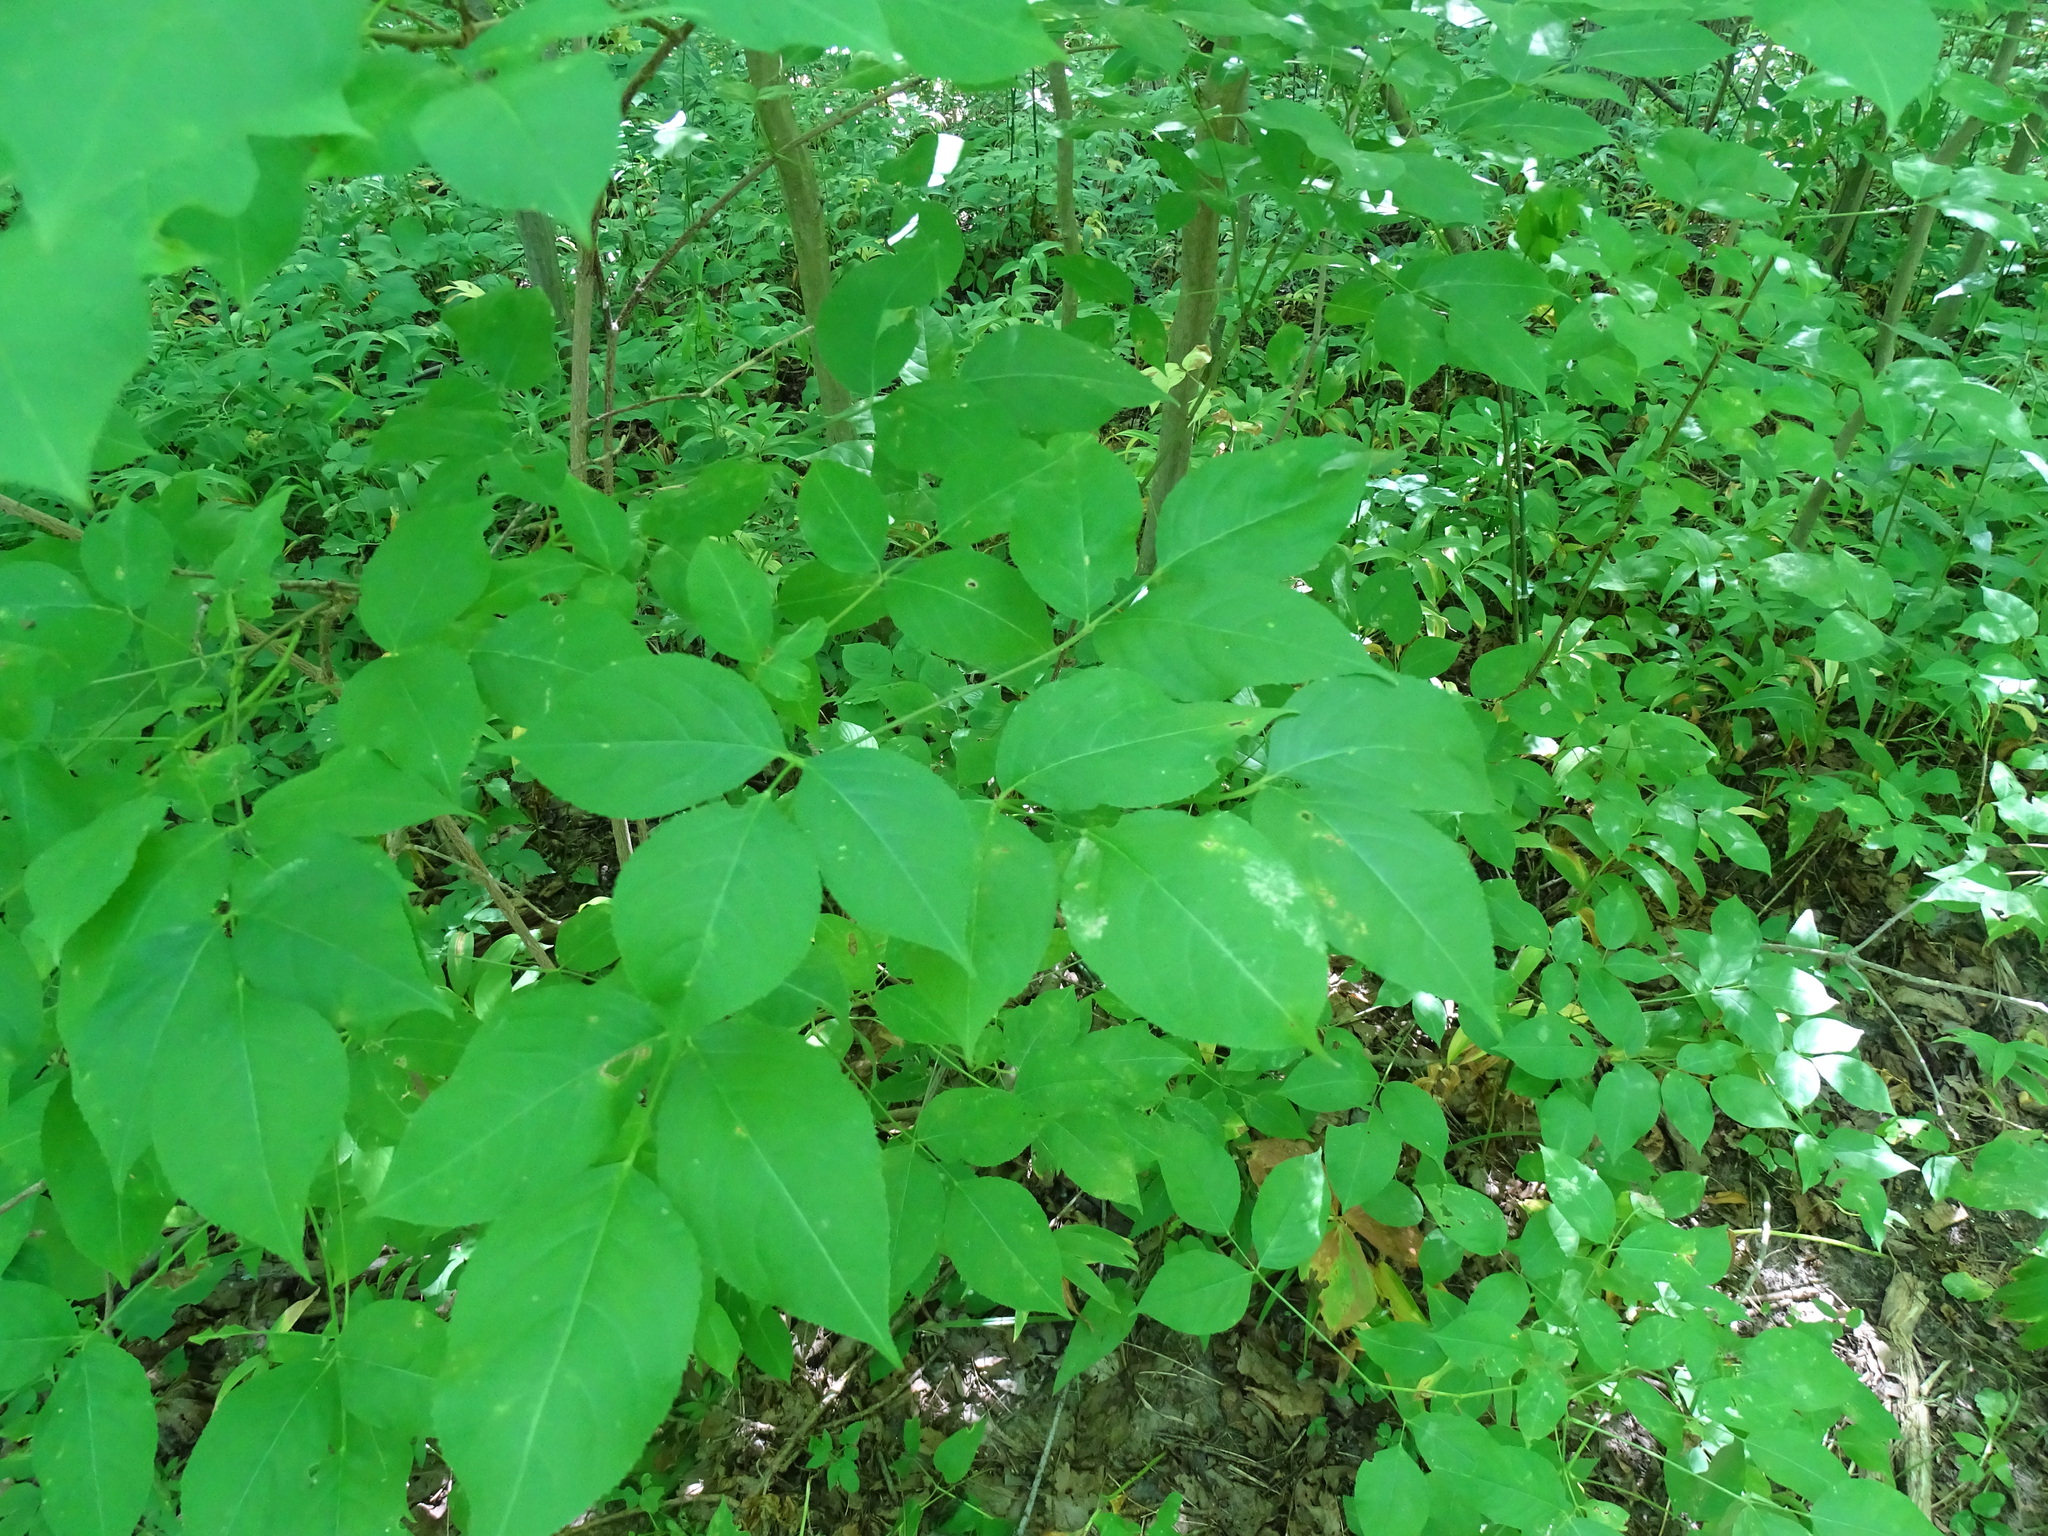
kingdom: Plantae
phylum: Tracheophyta
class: Magnoliopsida
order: Crossosomatales
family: Staphyleaceae
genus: Staphylea
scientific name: Staphylea trifolia
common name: American bladdernut
